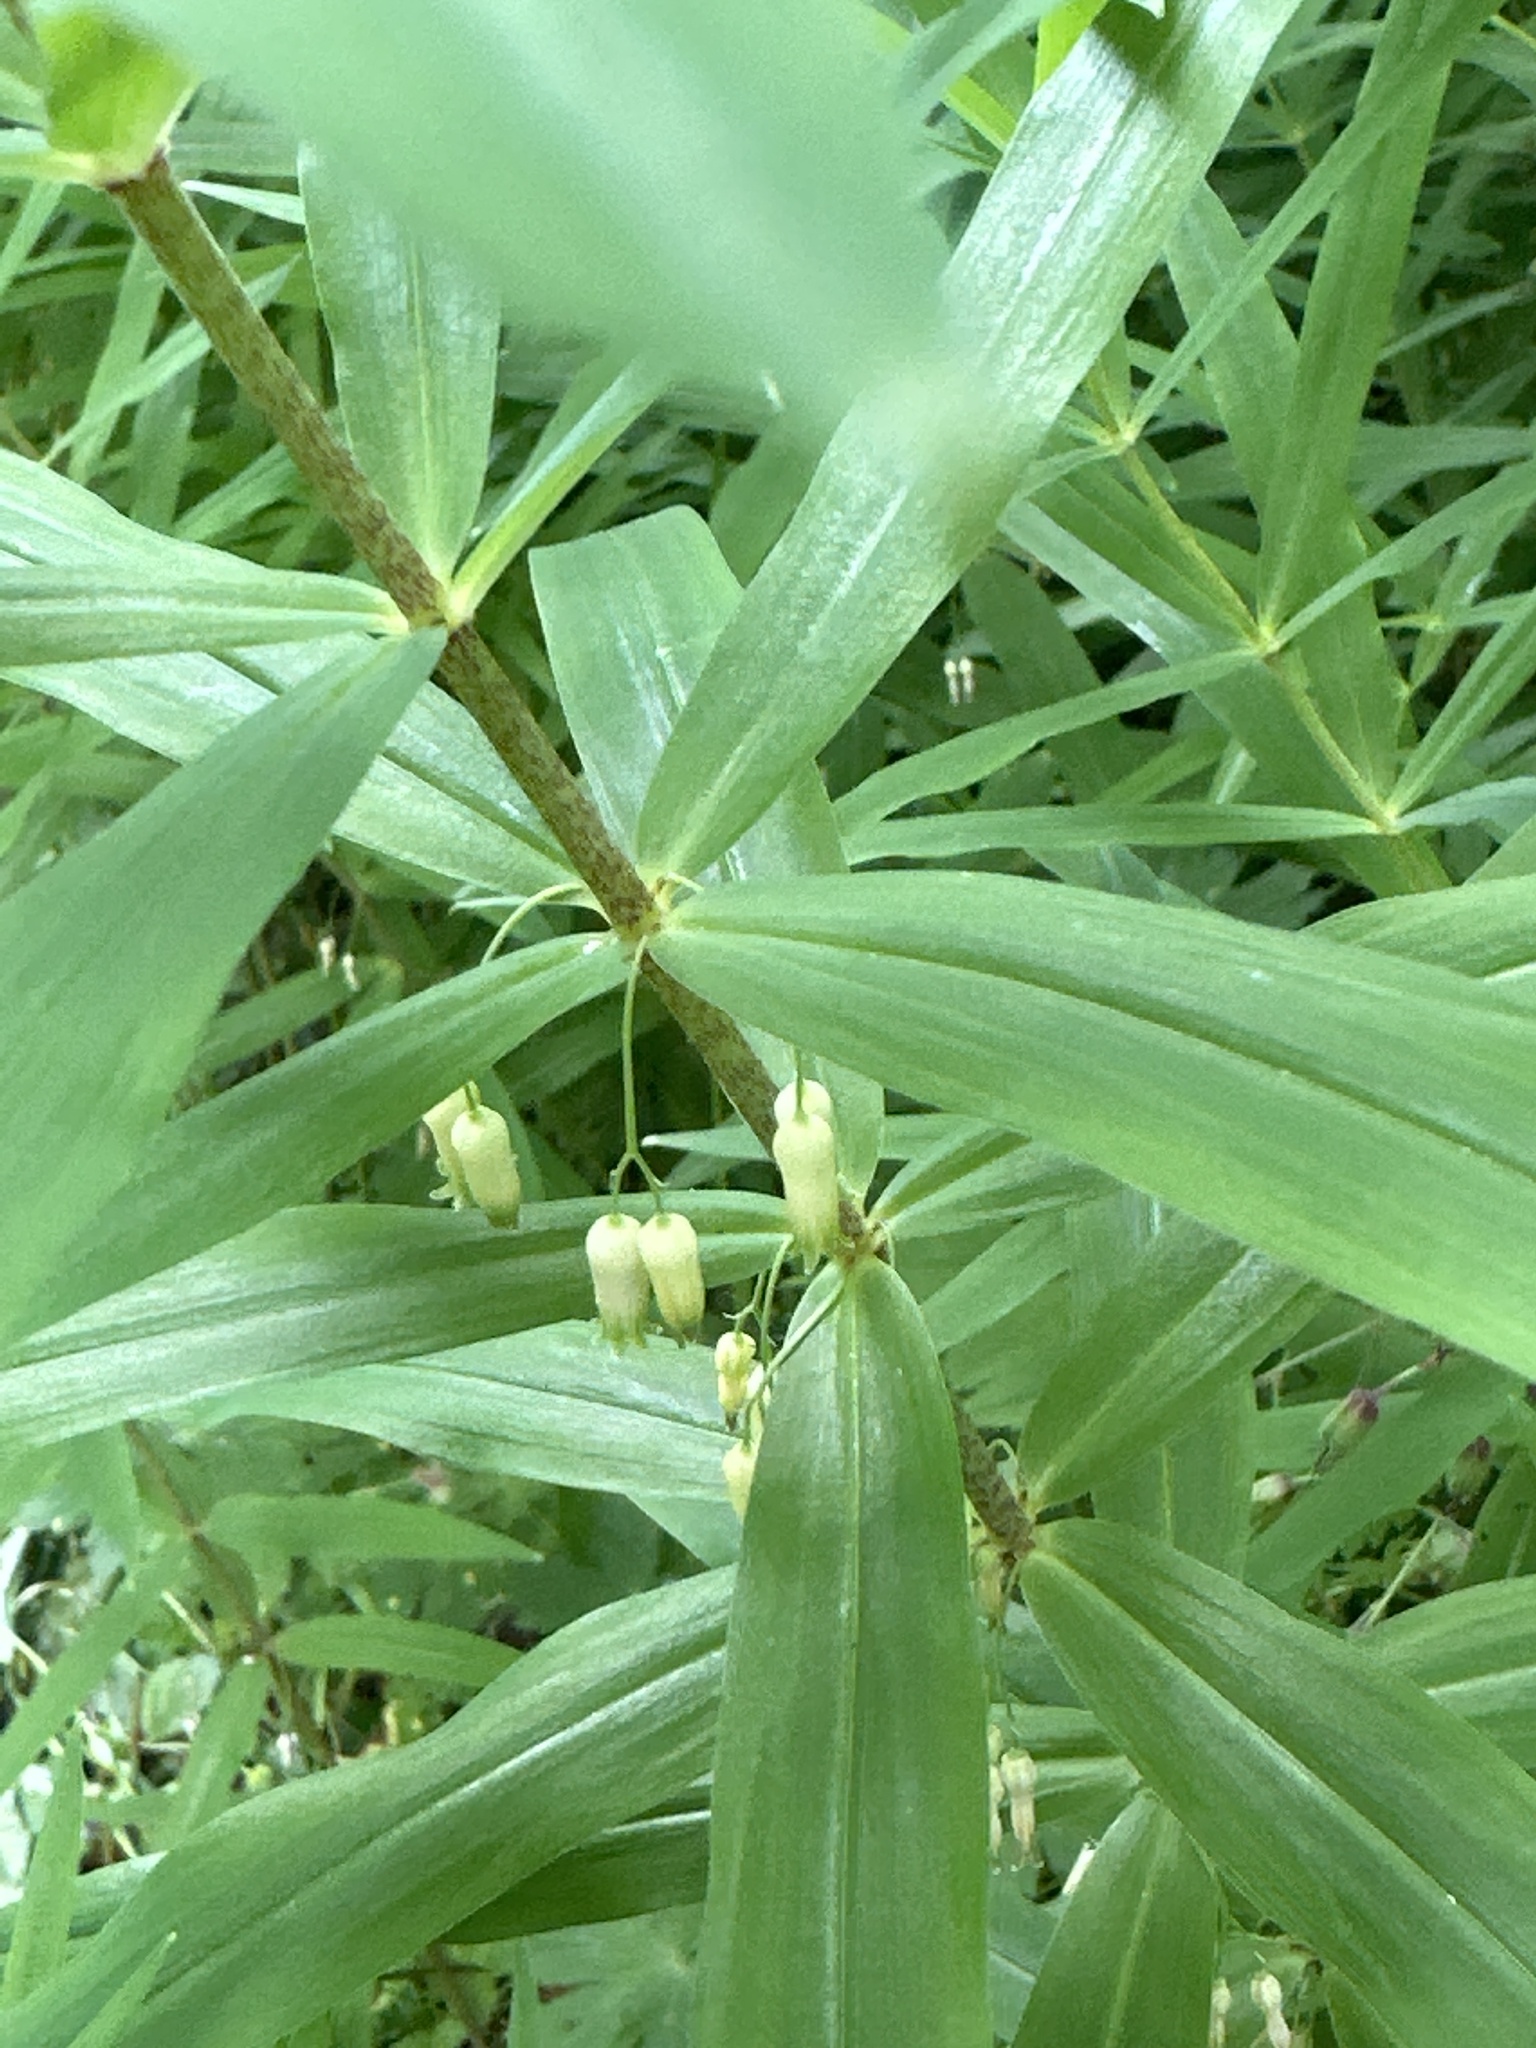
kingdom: Plantae
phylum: Tracheophyta
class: Liliopsida
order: Asparagales
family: Asparagaceae
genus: Polygonatum
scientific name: Polygonatum verticillatum
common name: Whorled solomon's-seal
